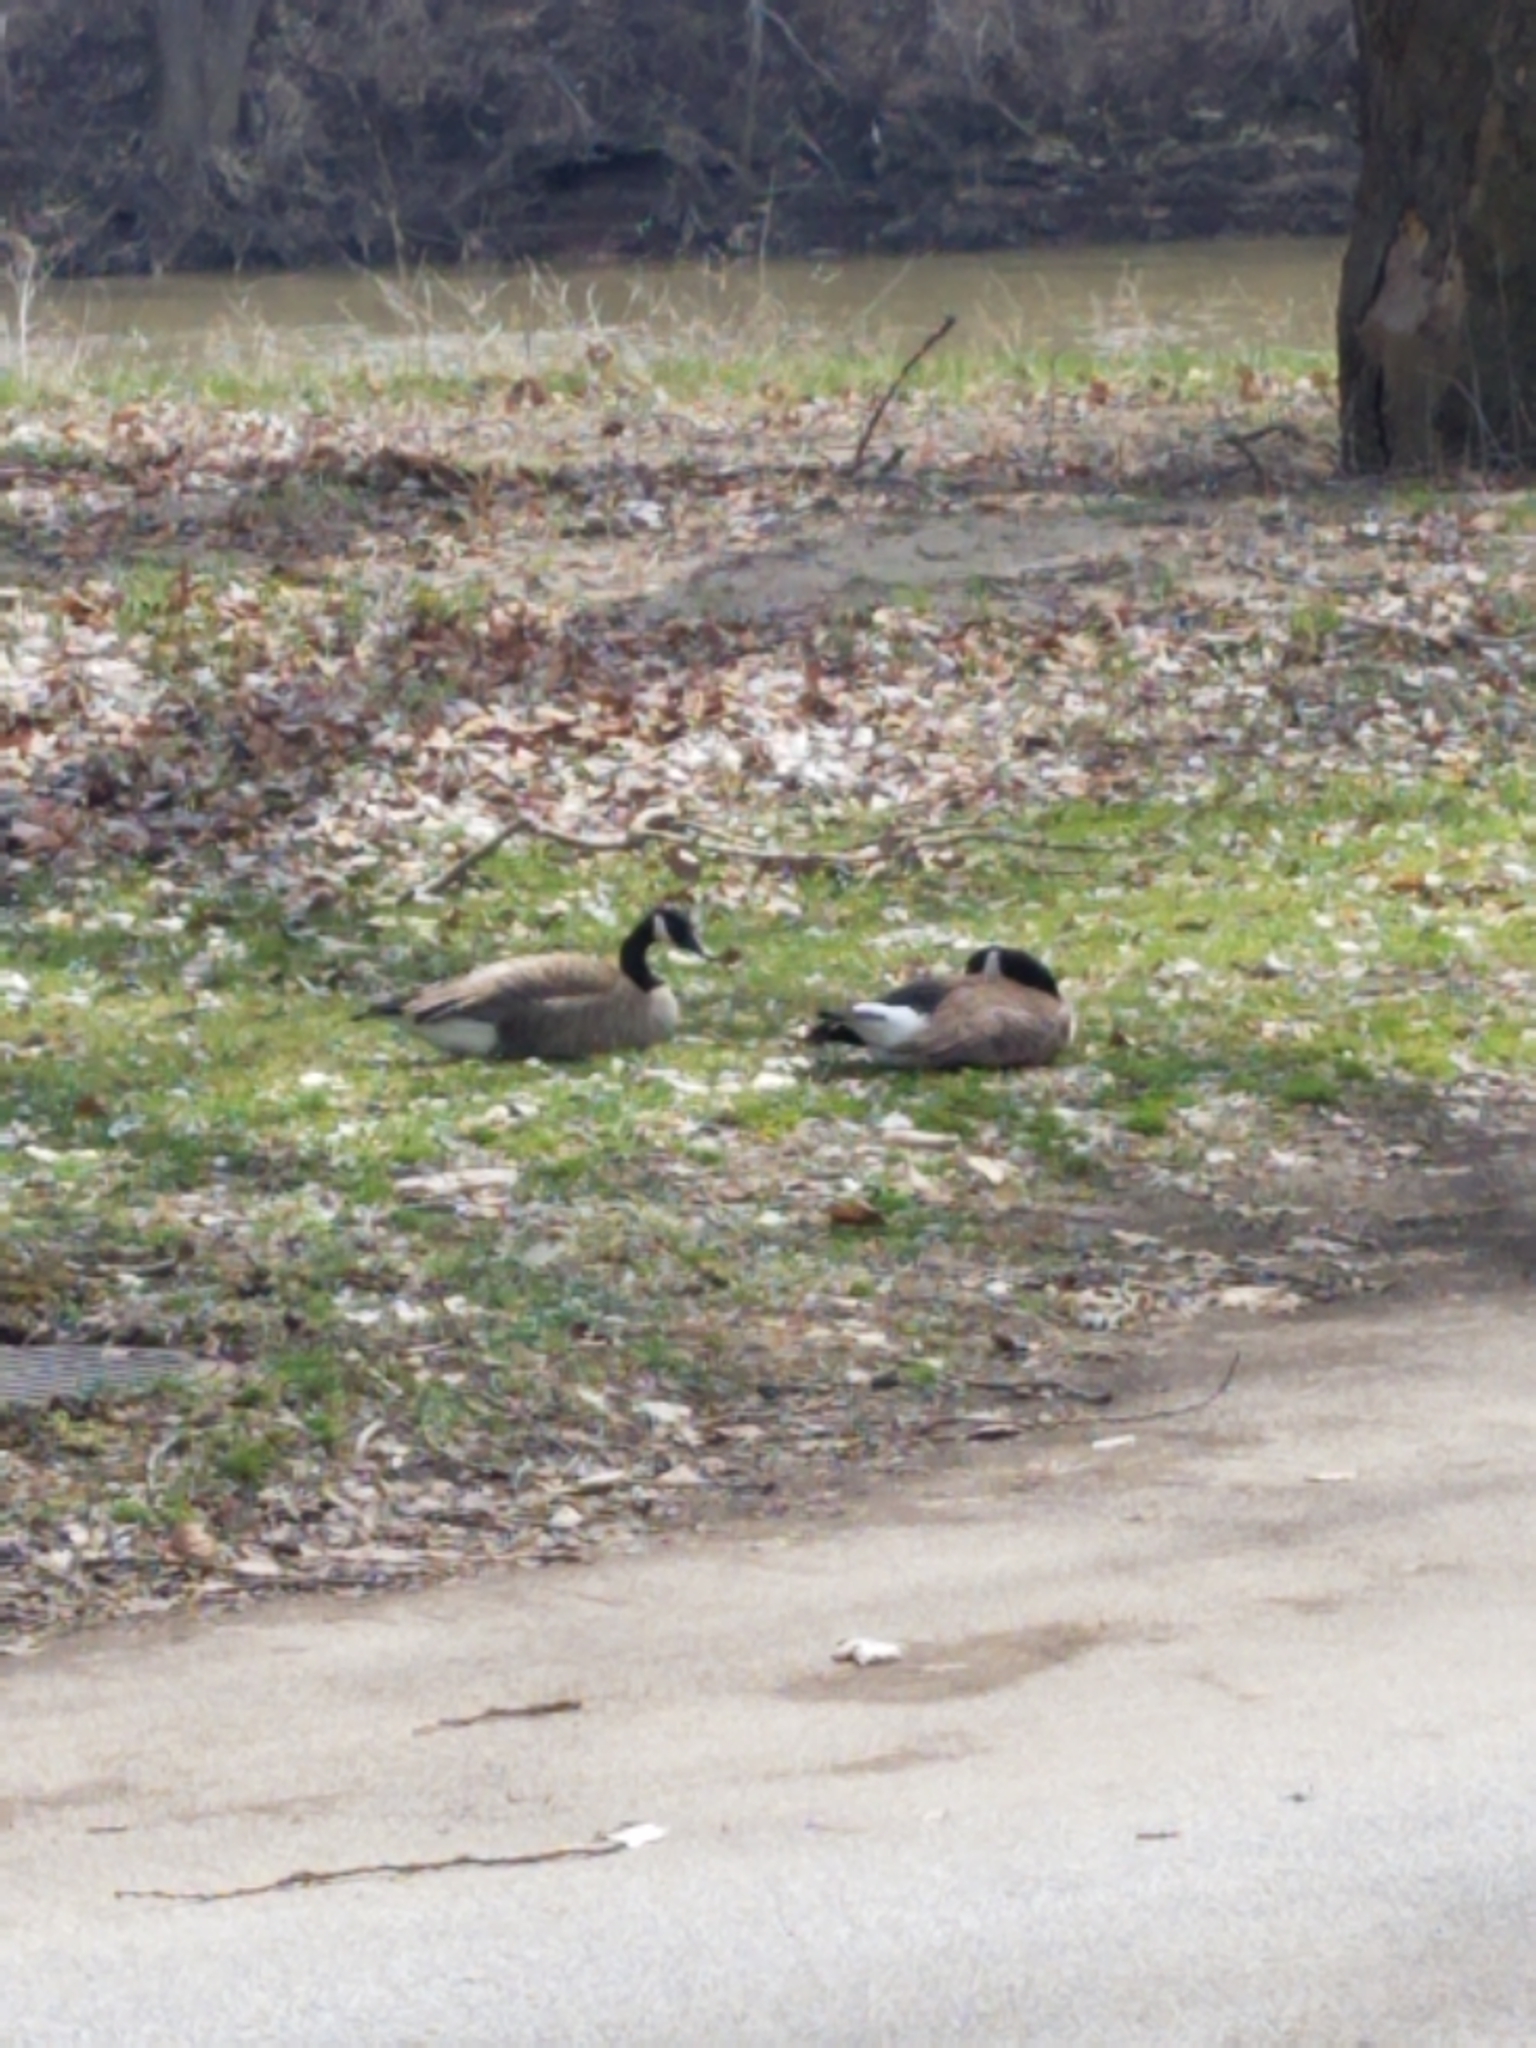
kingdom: Animalia
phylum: Chordata
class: Aves
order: Anseriformes
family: Anatidae
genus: Branta
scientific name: Branta canadensis
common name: Canada goose
